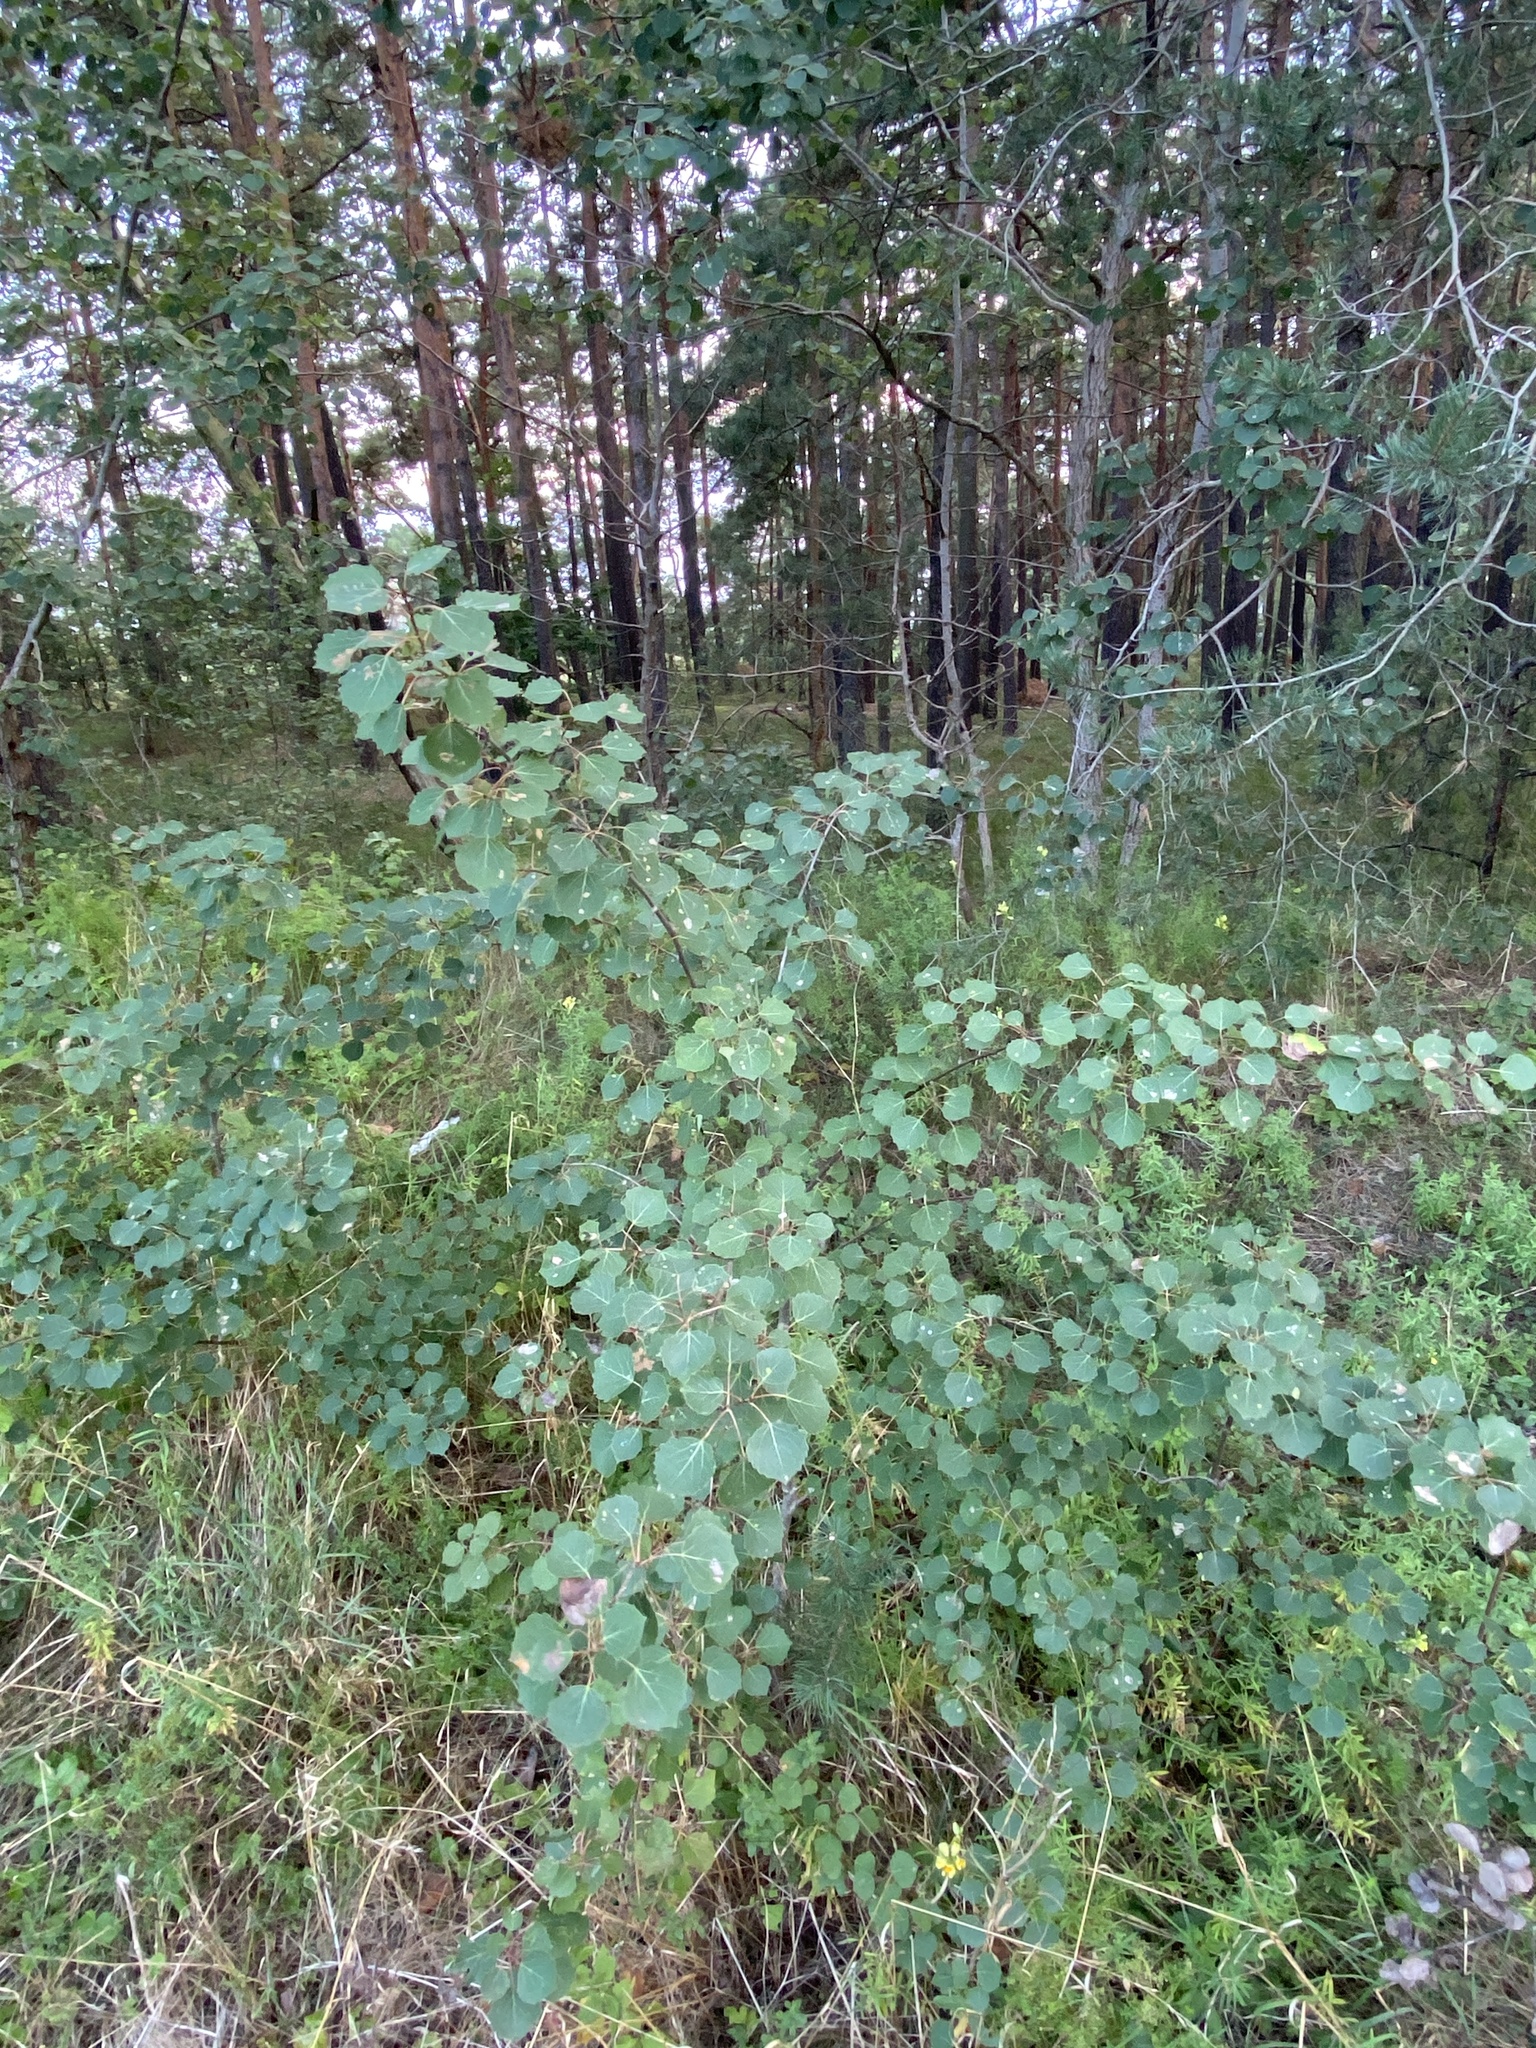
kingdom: Plantae
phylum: Tracheophyta
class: Magnoliopsida
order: Malpighiales
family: Salicaceae
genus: Populus
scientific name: Populus tremula
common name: European aspen
